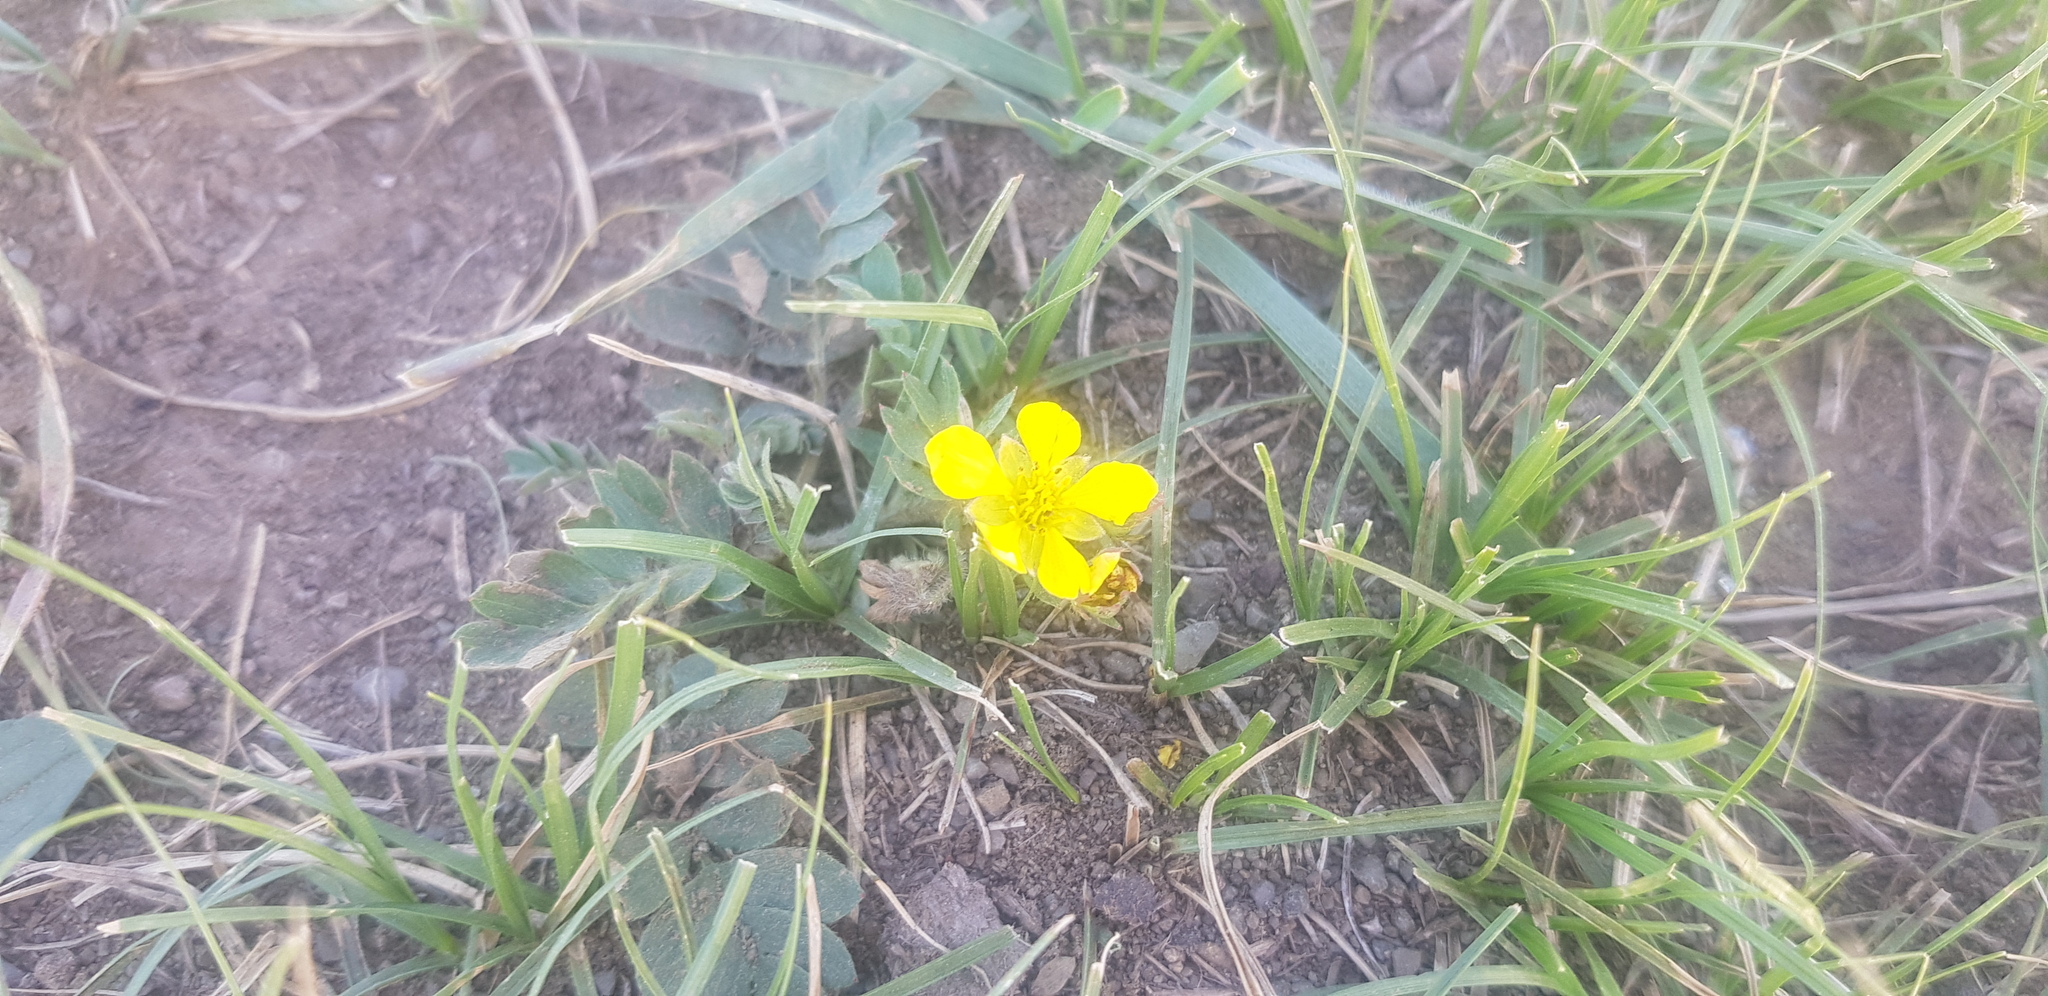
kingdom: Plantae
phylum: Tracheophyta
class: Magnoliopsida
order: Rosales
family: Rosaceae
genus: Sibbaldianthe
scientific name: Sibbaldianthe bifurca
